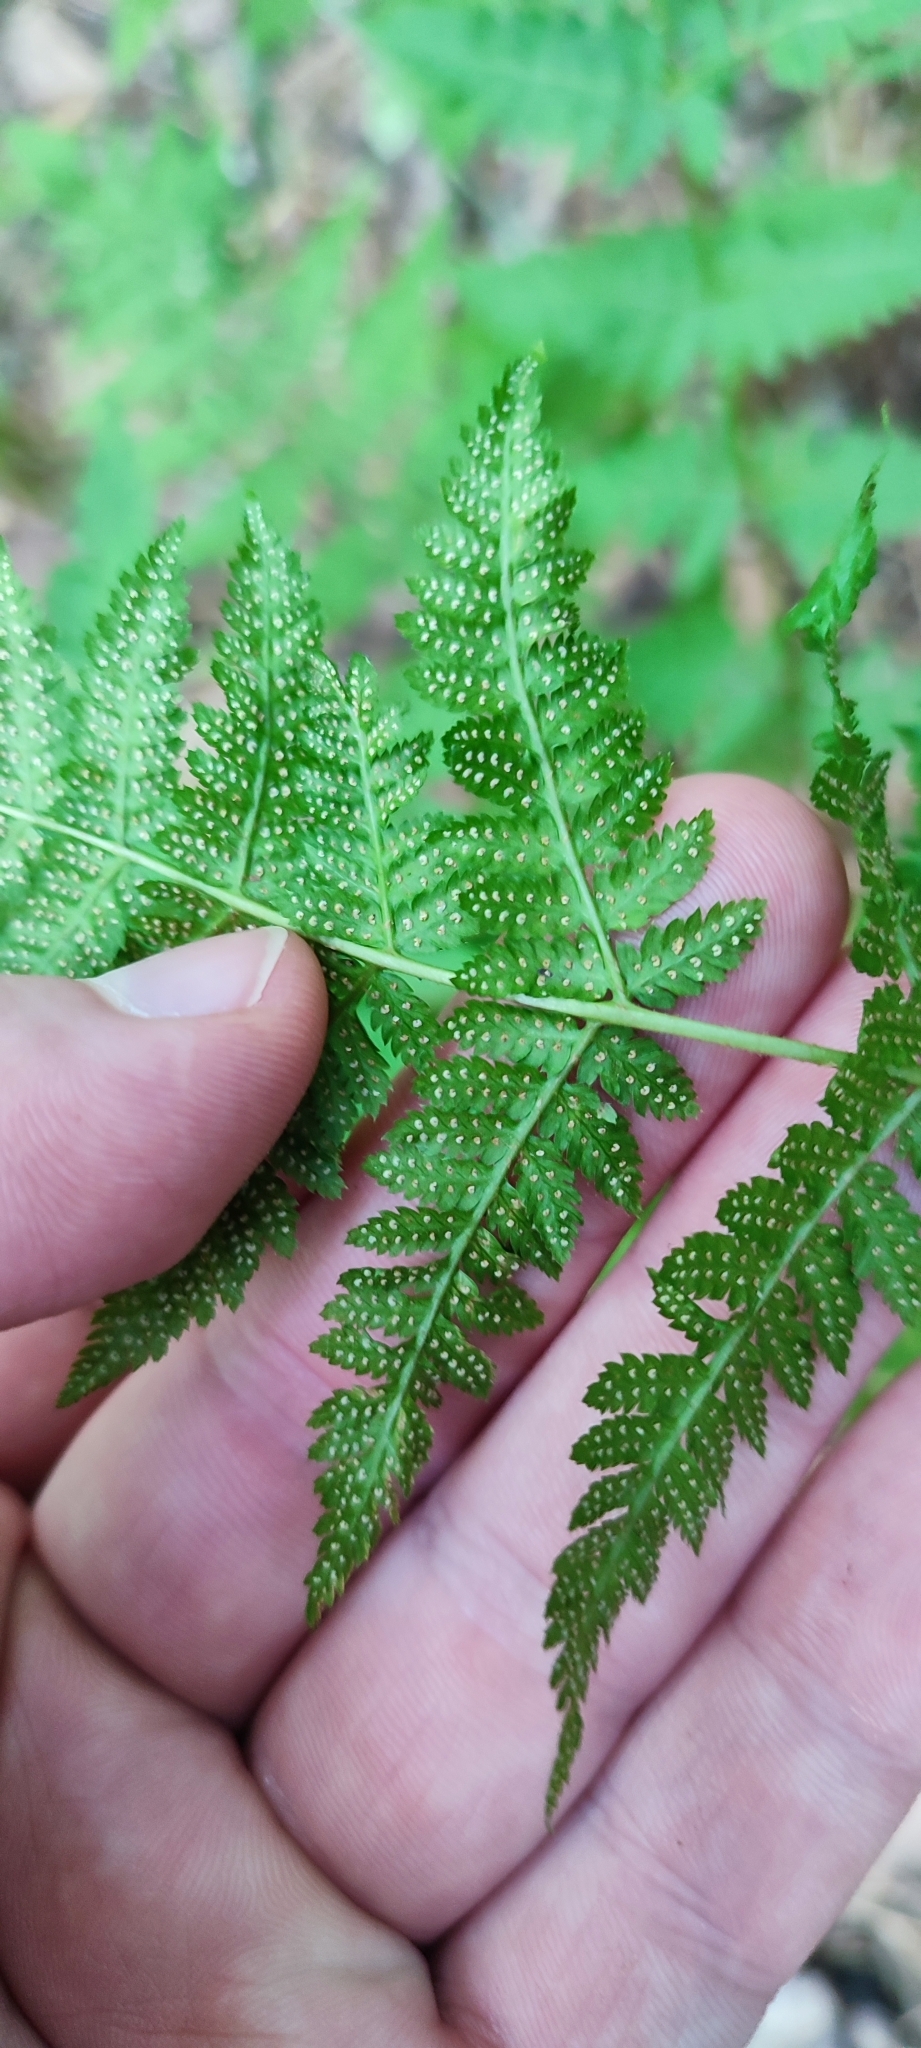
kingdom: Plantae
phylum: Tracheophyta
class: Polypodiopsida
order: Polypodiales
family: Dryopteridaceae
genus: Dryopteris
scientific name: Dryopteris carthusiana
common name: Narrow buckler-fern
